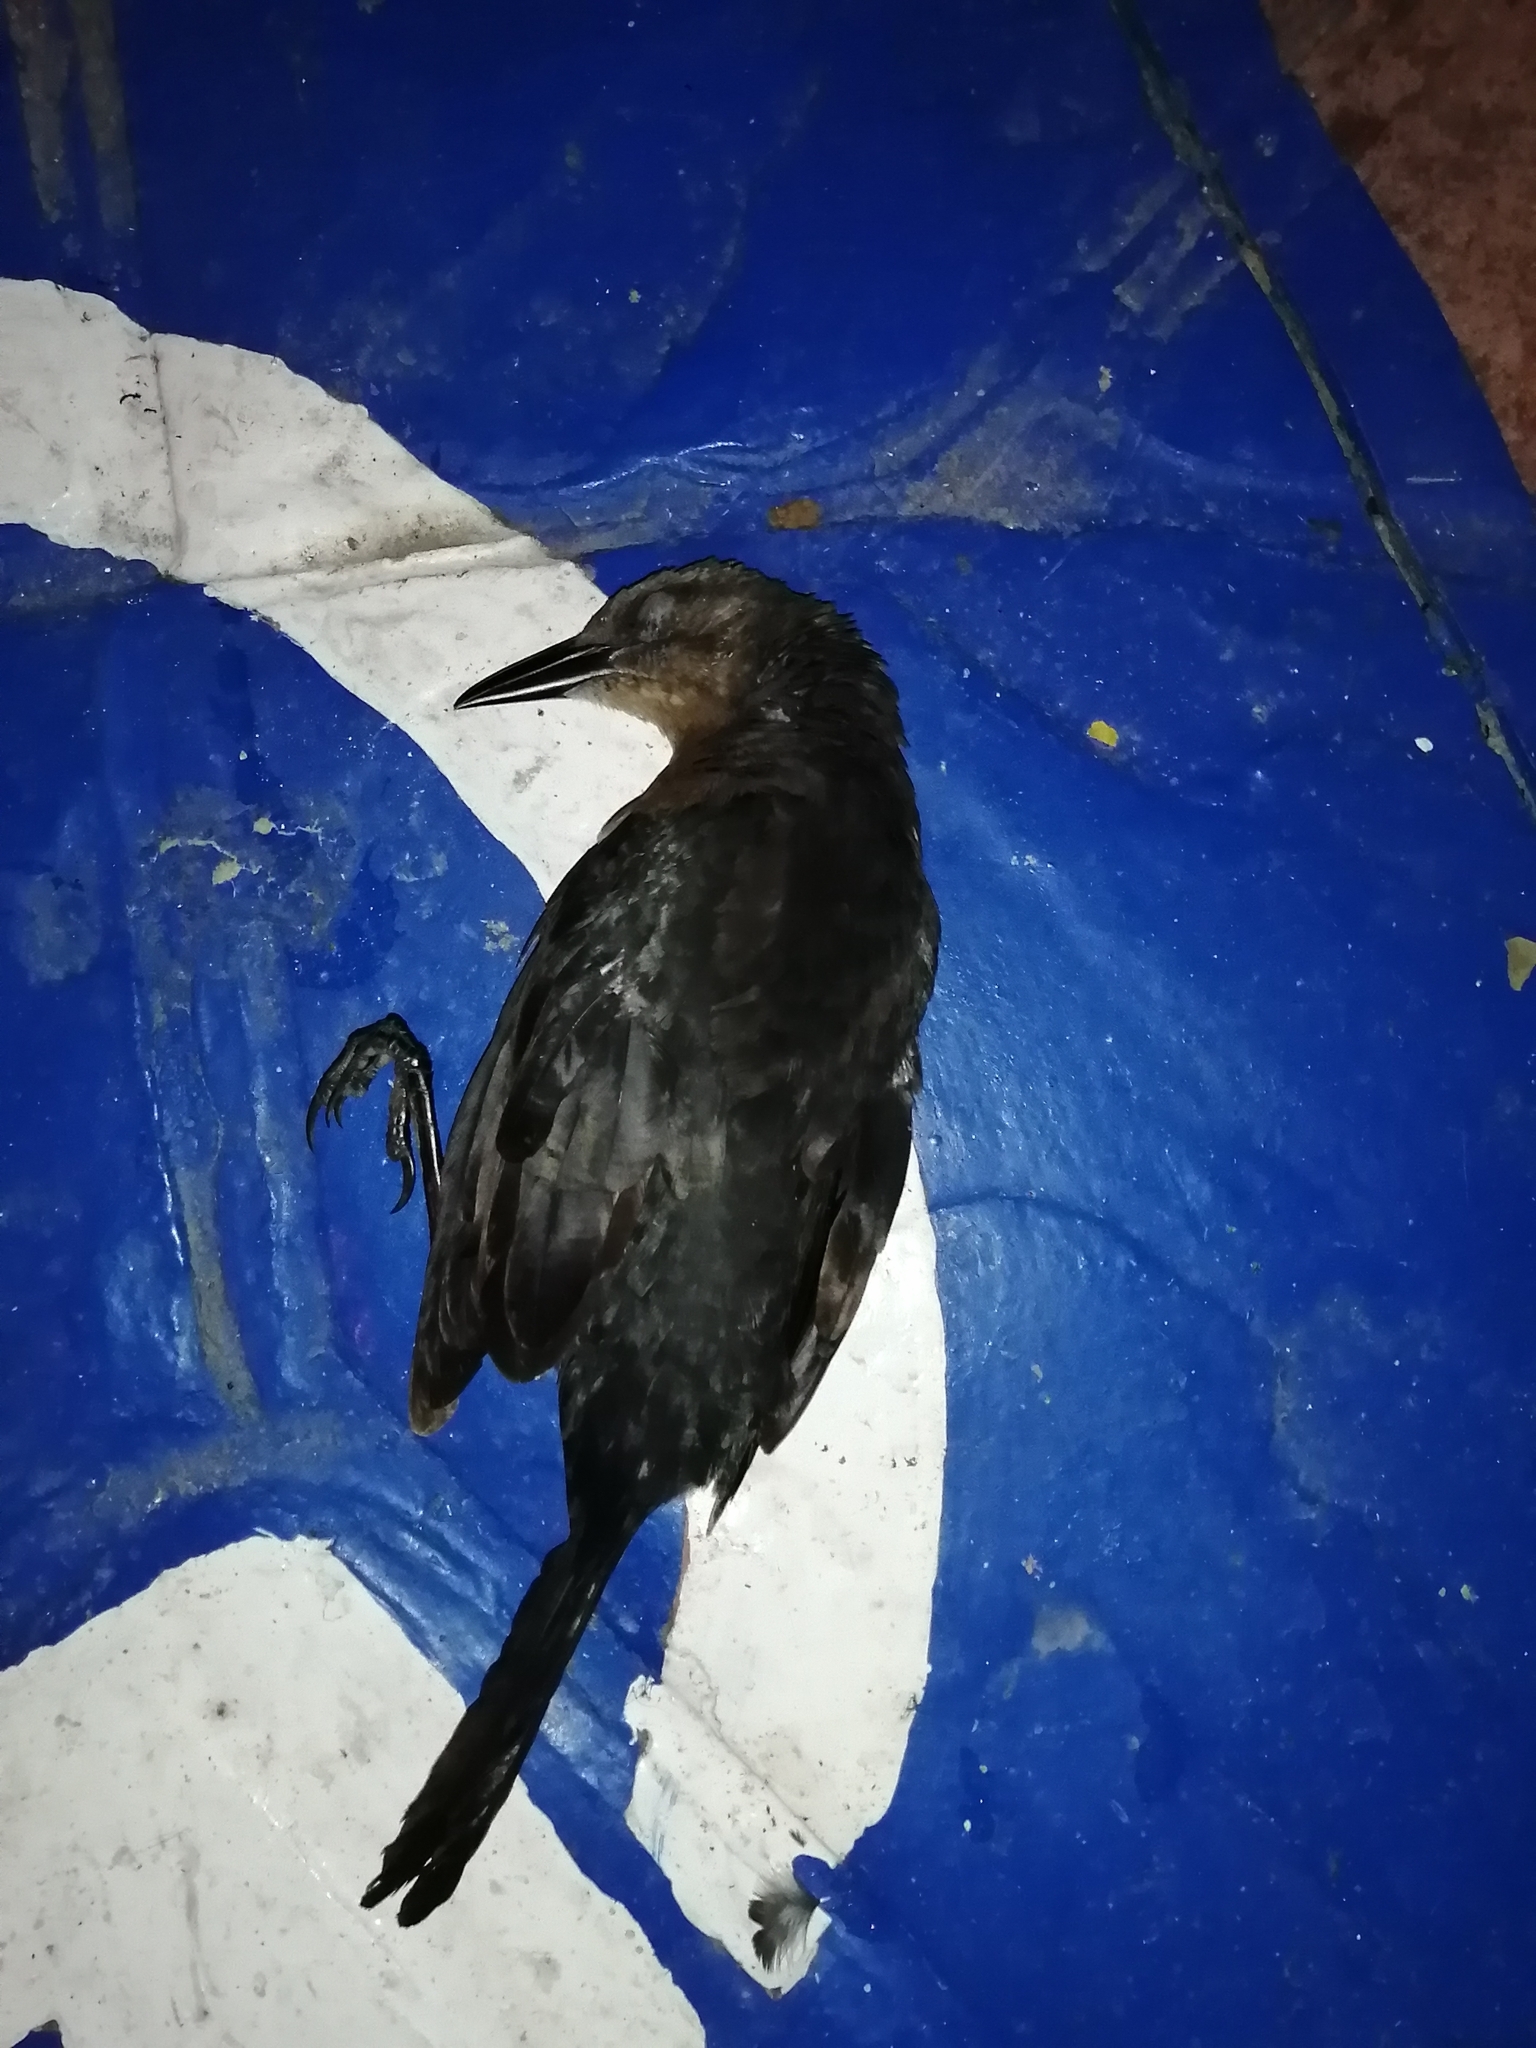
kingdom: Animalia
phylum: Chordata
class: Aves
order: Passeriformes
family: Icteridae
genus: Quiscalus
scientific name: Quiscalus mexicanus
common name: Great-tailed grackle
